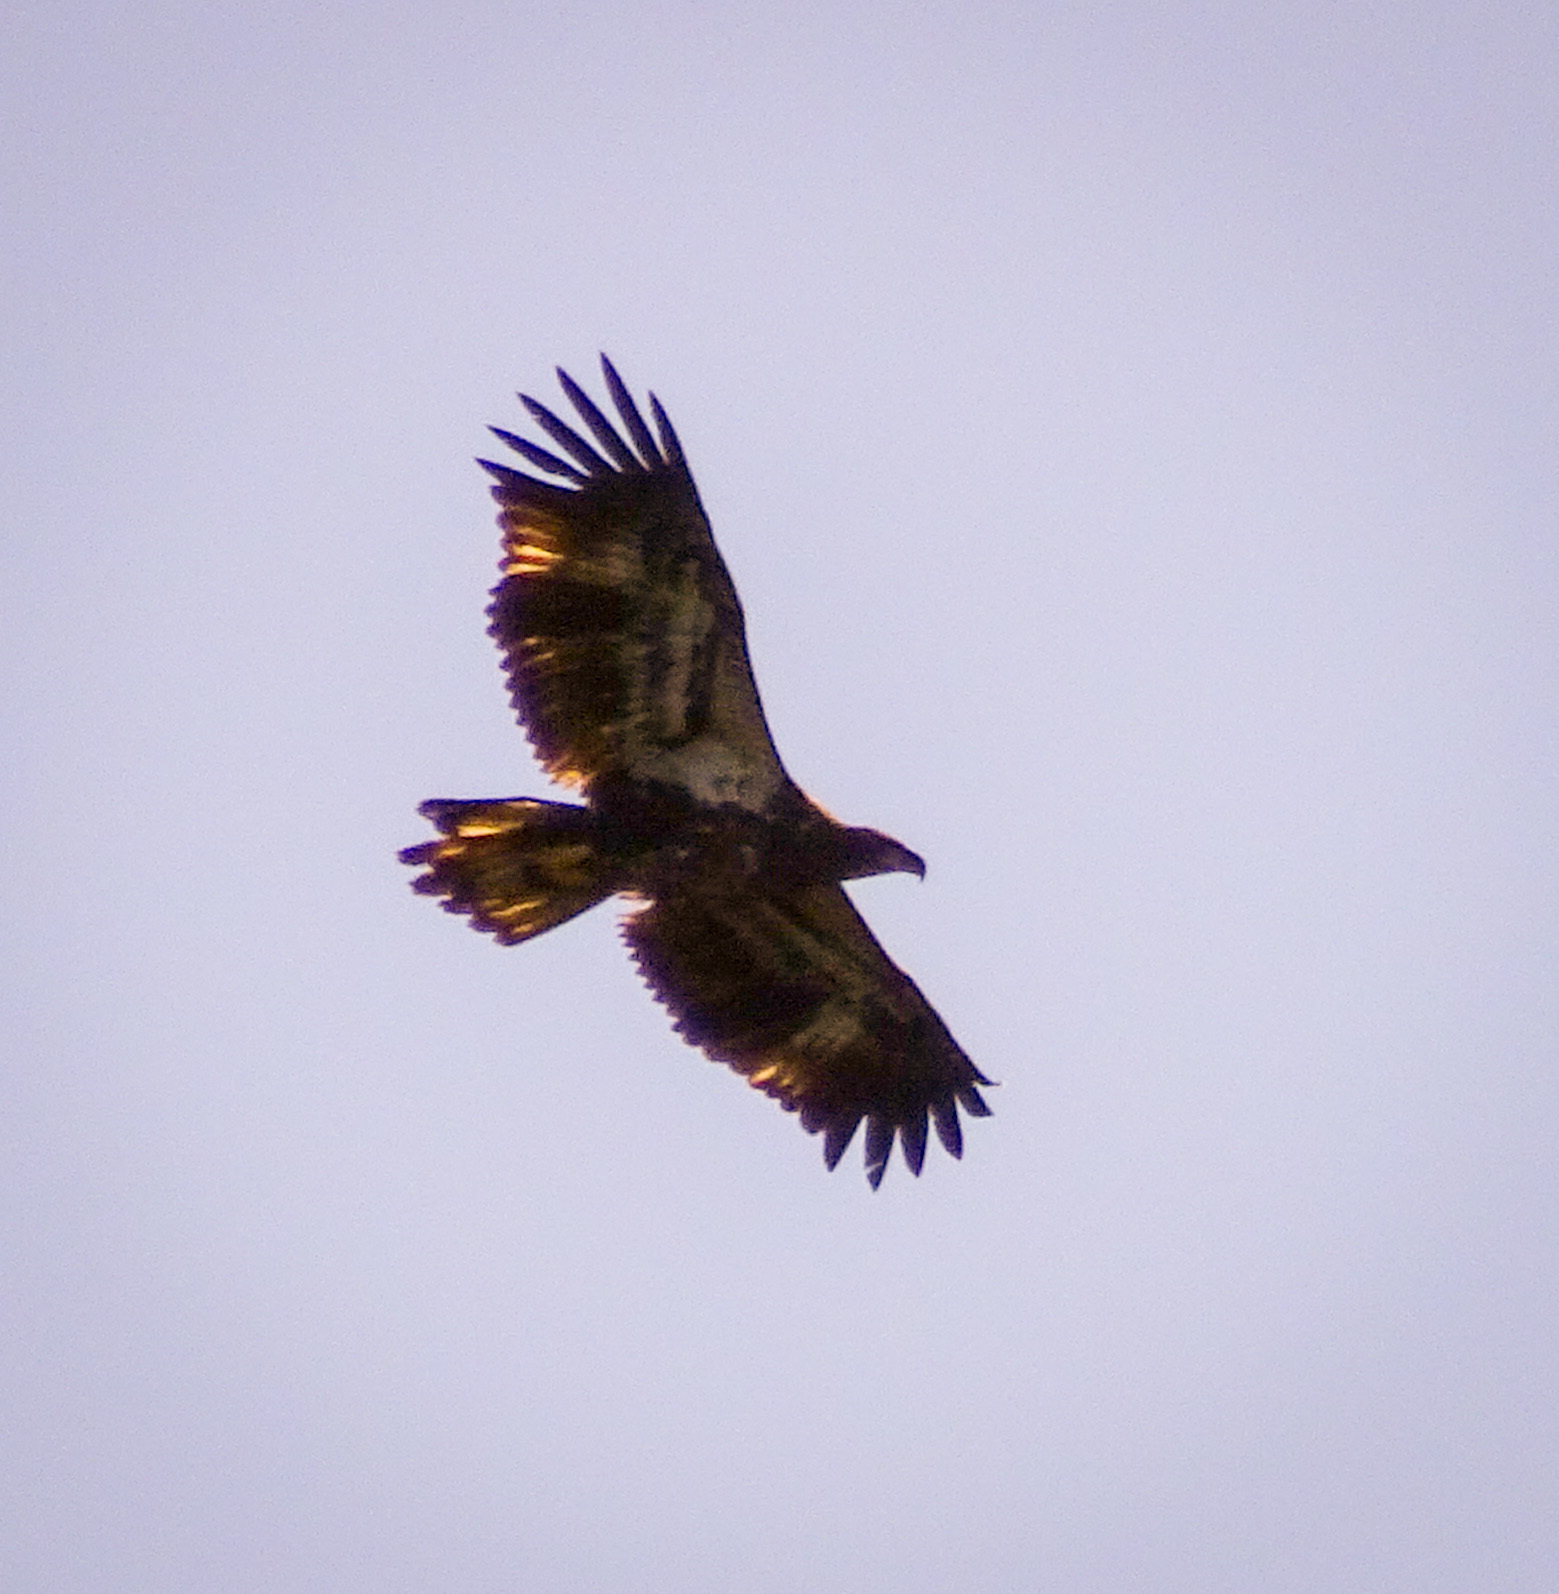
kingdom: Animalia
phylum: Chordata
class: Aves
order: Accipitriformes
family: Accipitridae
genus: Haliaeetus
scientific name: Haliaeetus leucocephalus
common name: Bald eagle
